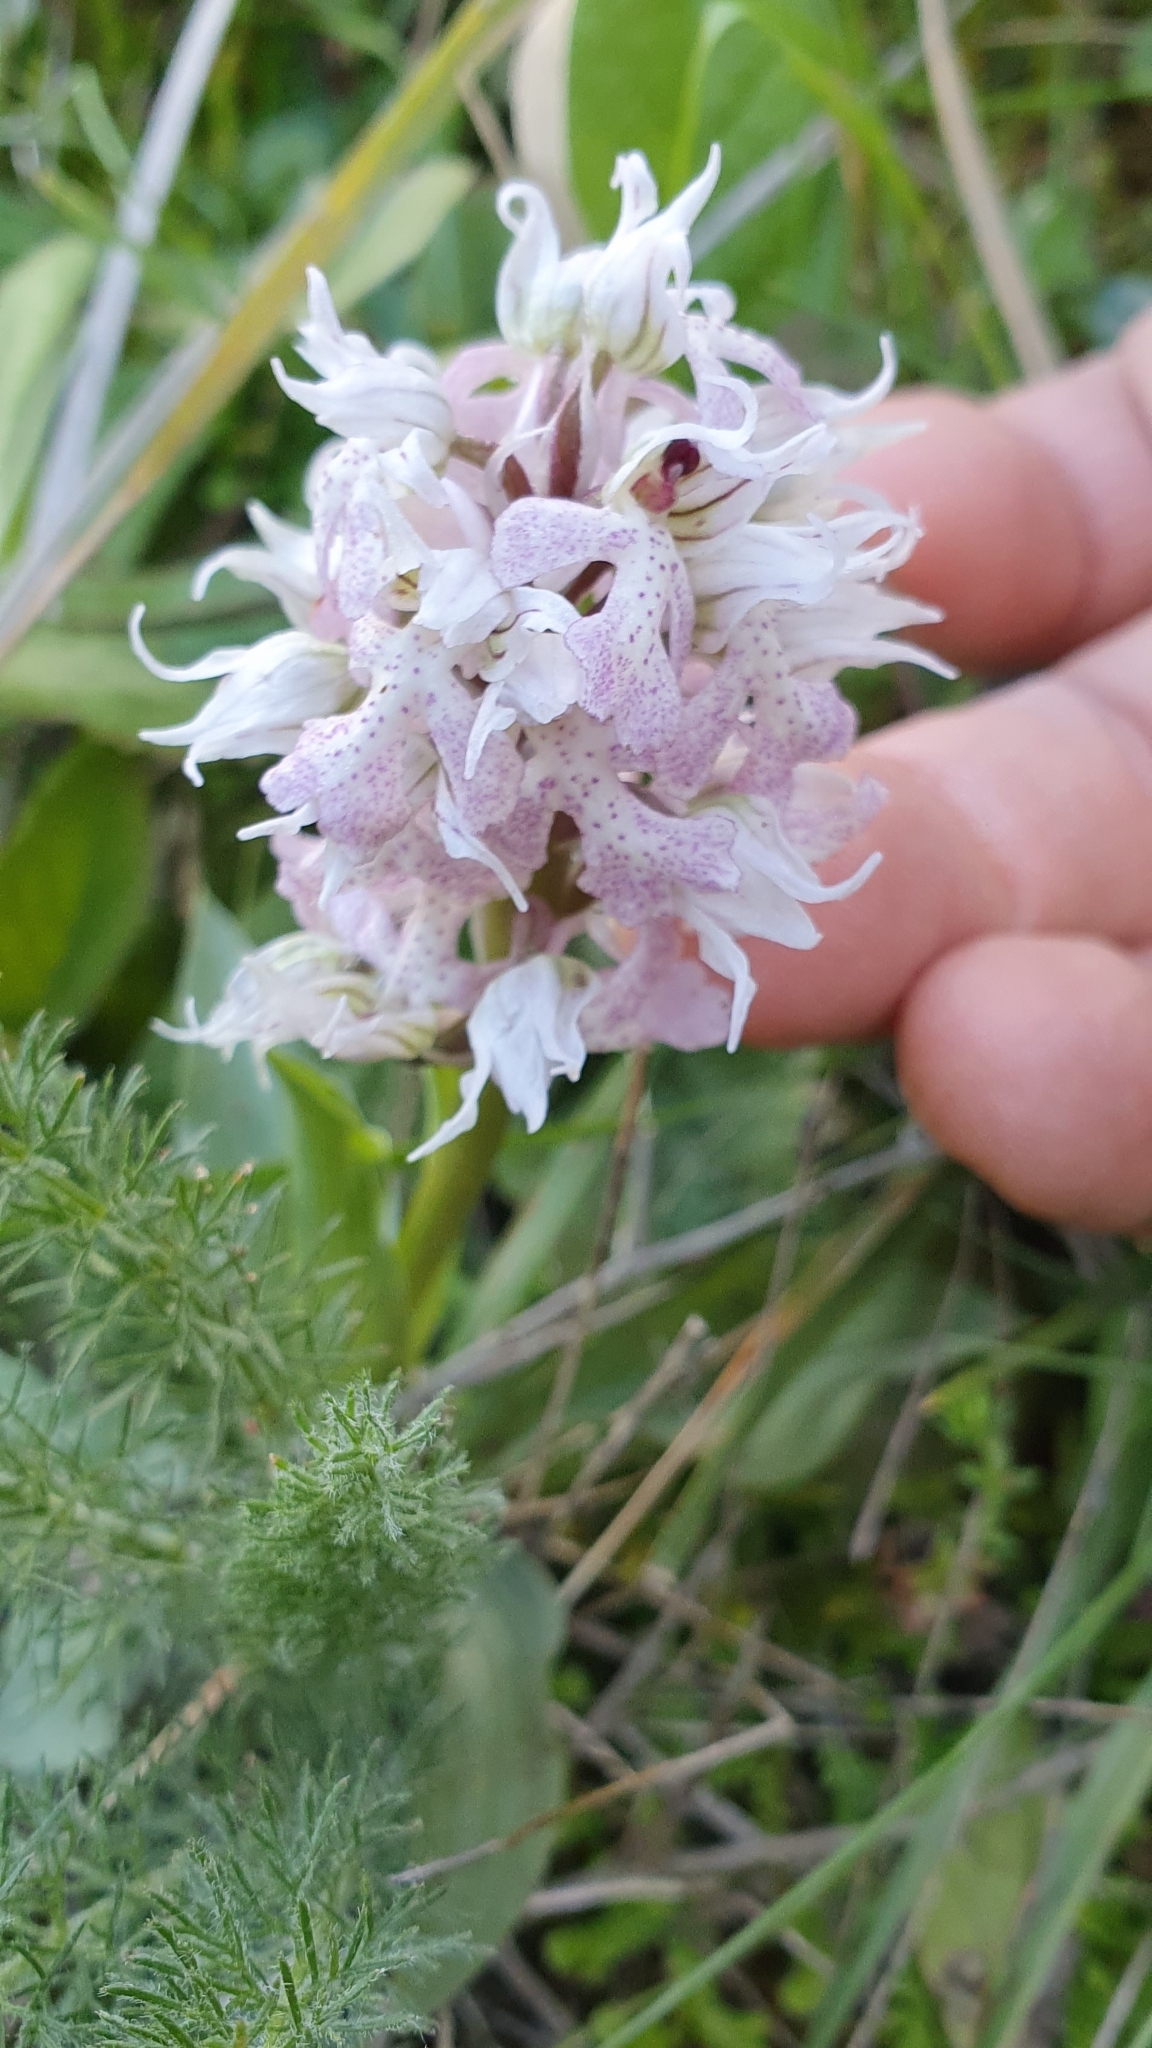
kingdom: Plantae
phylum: Tracheophyta
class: Liliopsida
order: Asparagales
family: Orchidaceae
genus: Neotinea
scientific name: Neotinea lactea
